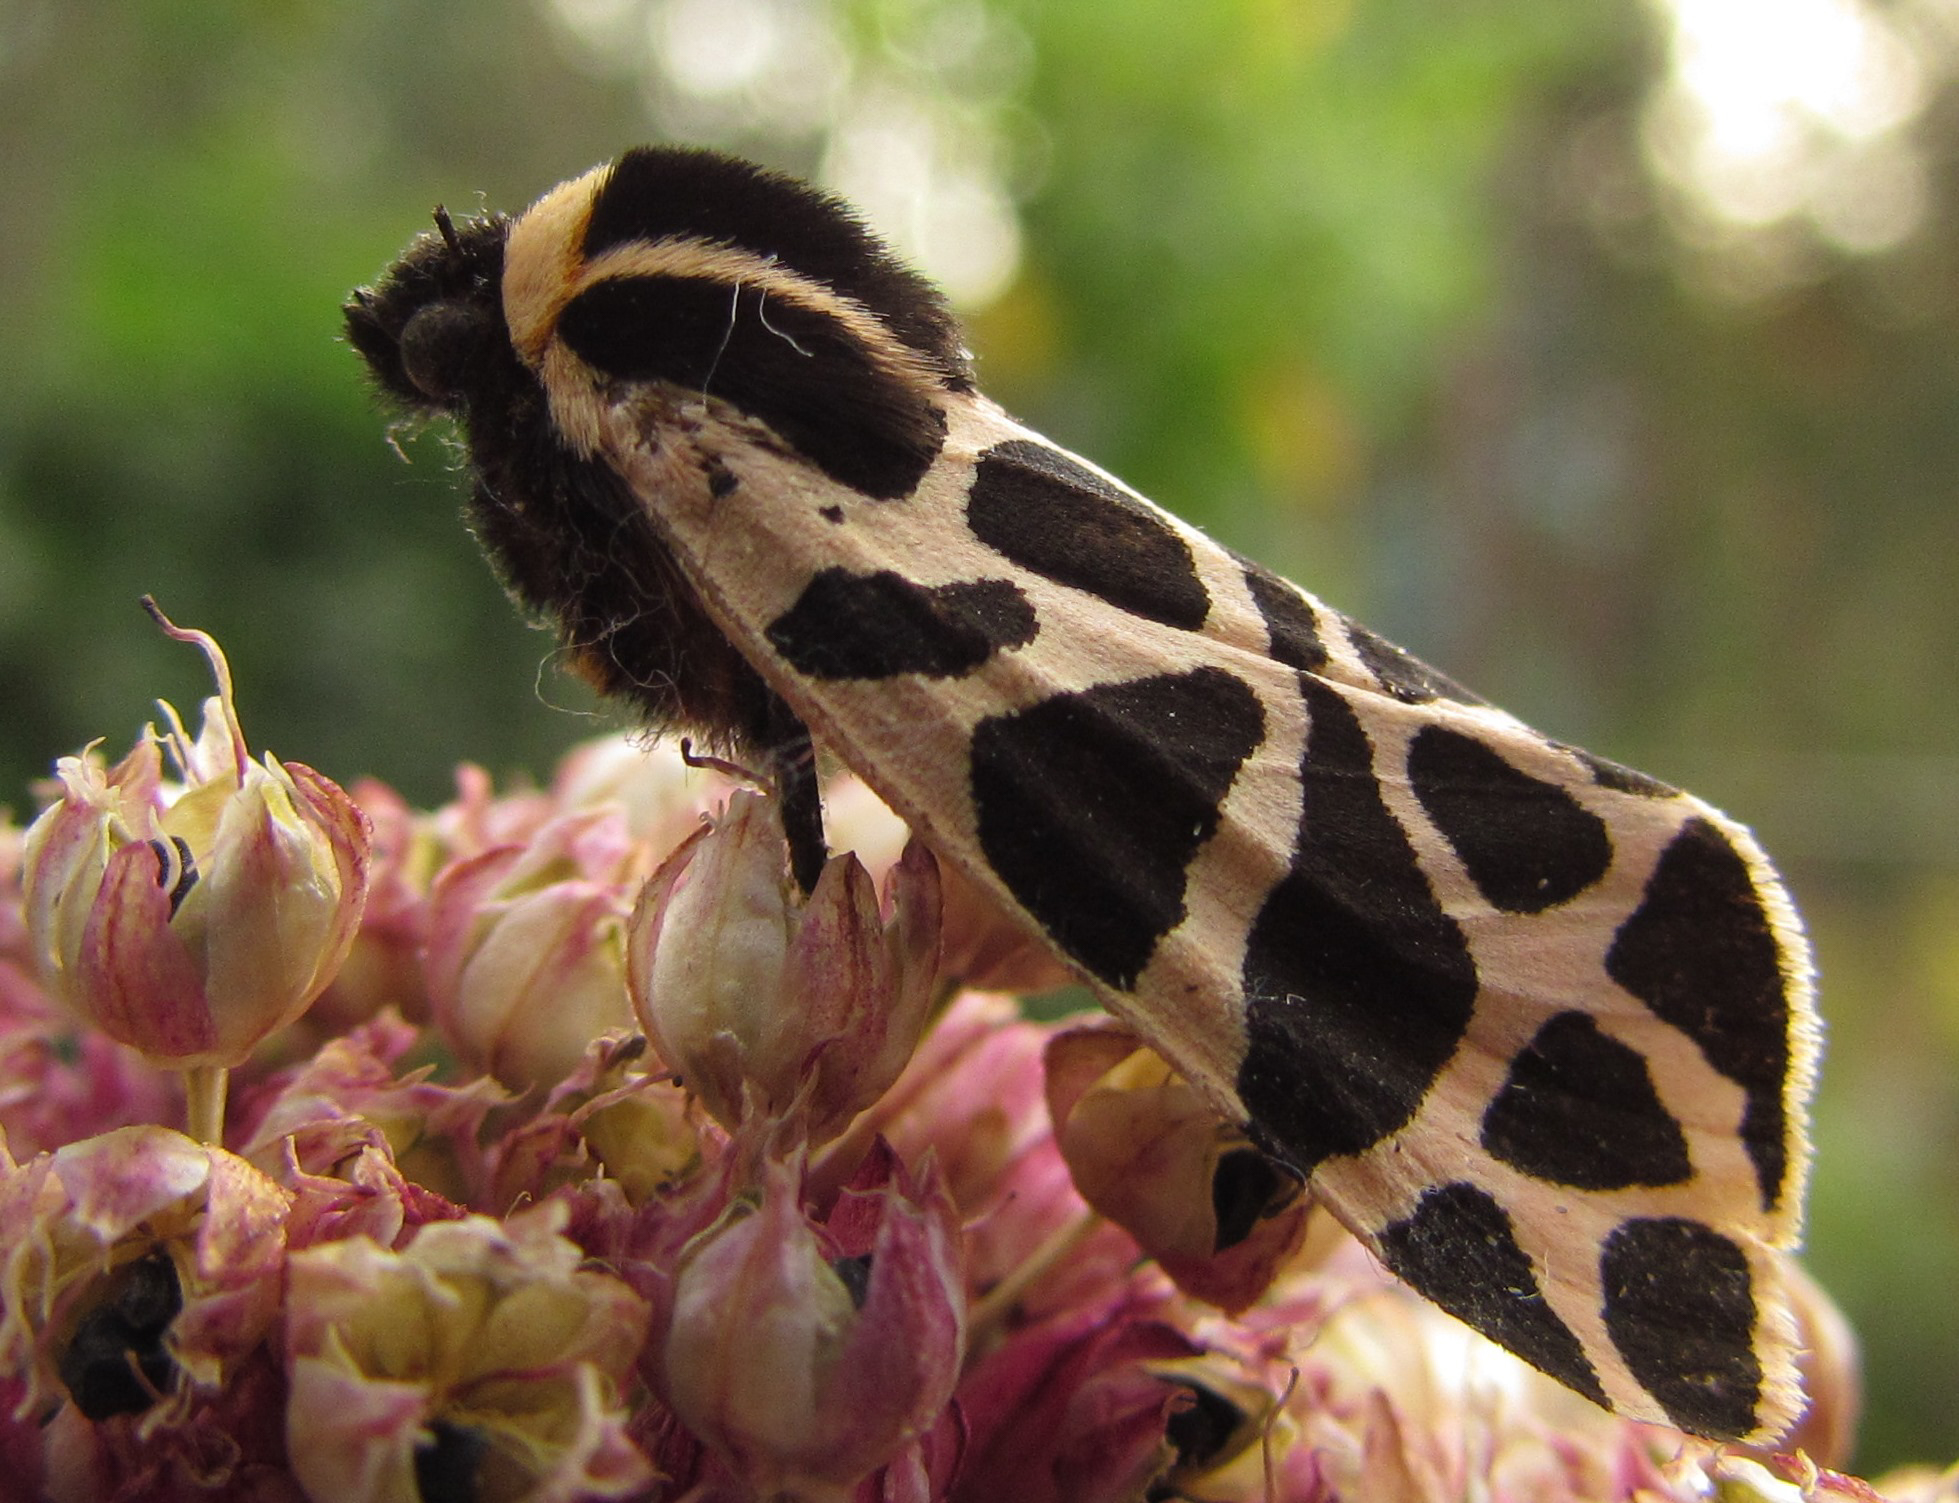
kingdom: Animalia
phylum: Arthropoda
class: Insecta
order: Lepidoptera
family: Erebidae
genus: Cymbalophora
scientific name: Cymbalophora pudica
